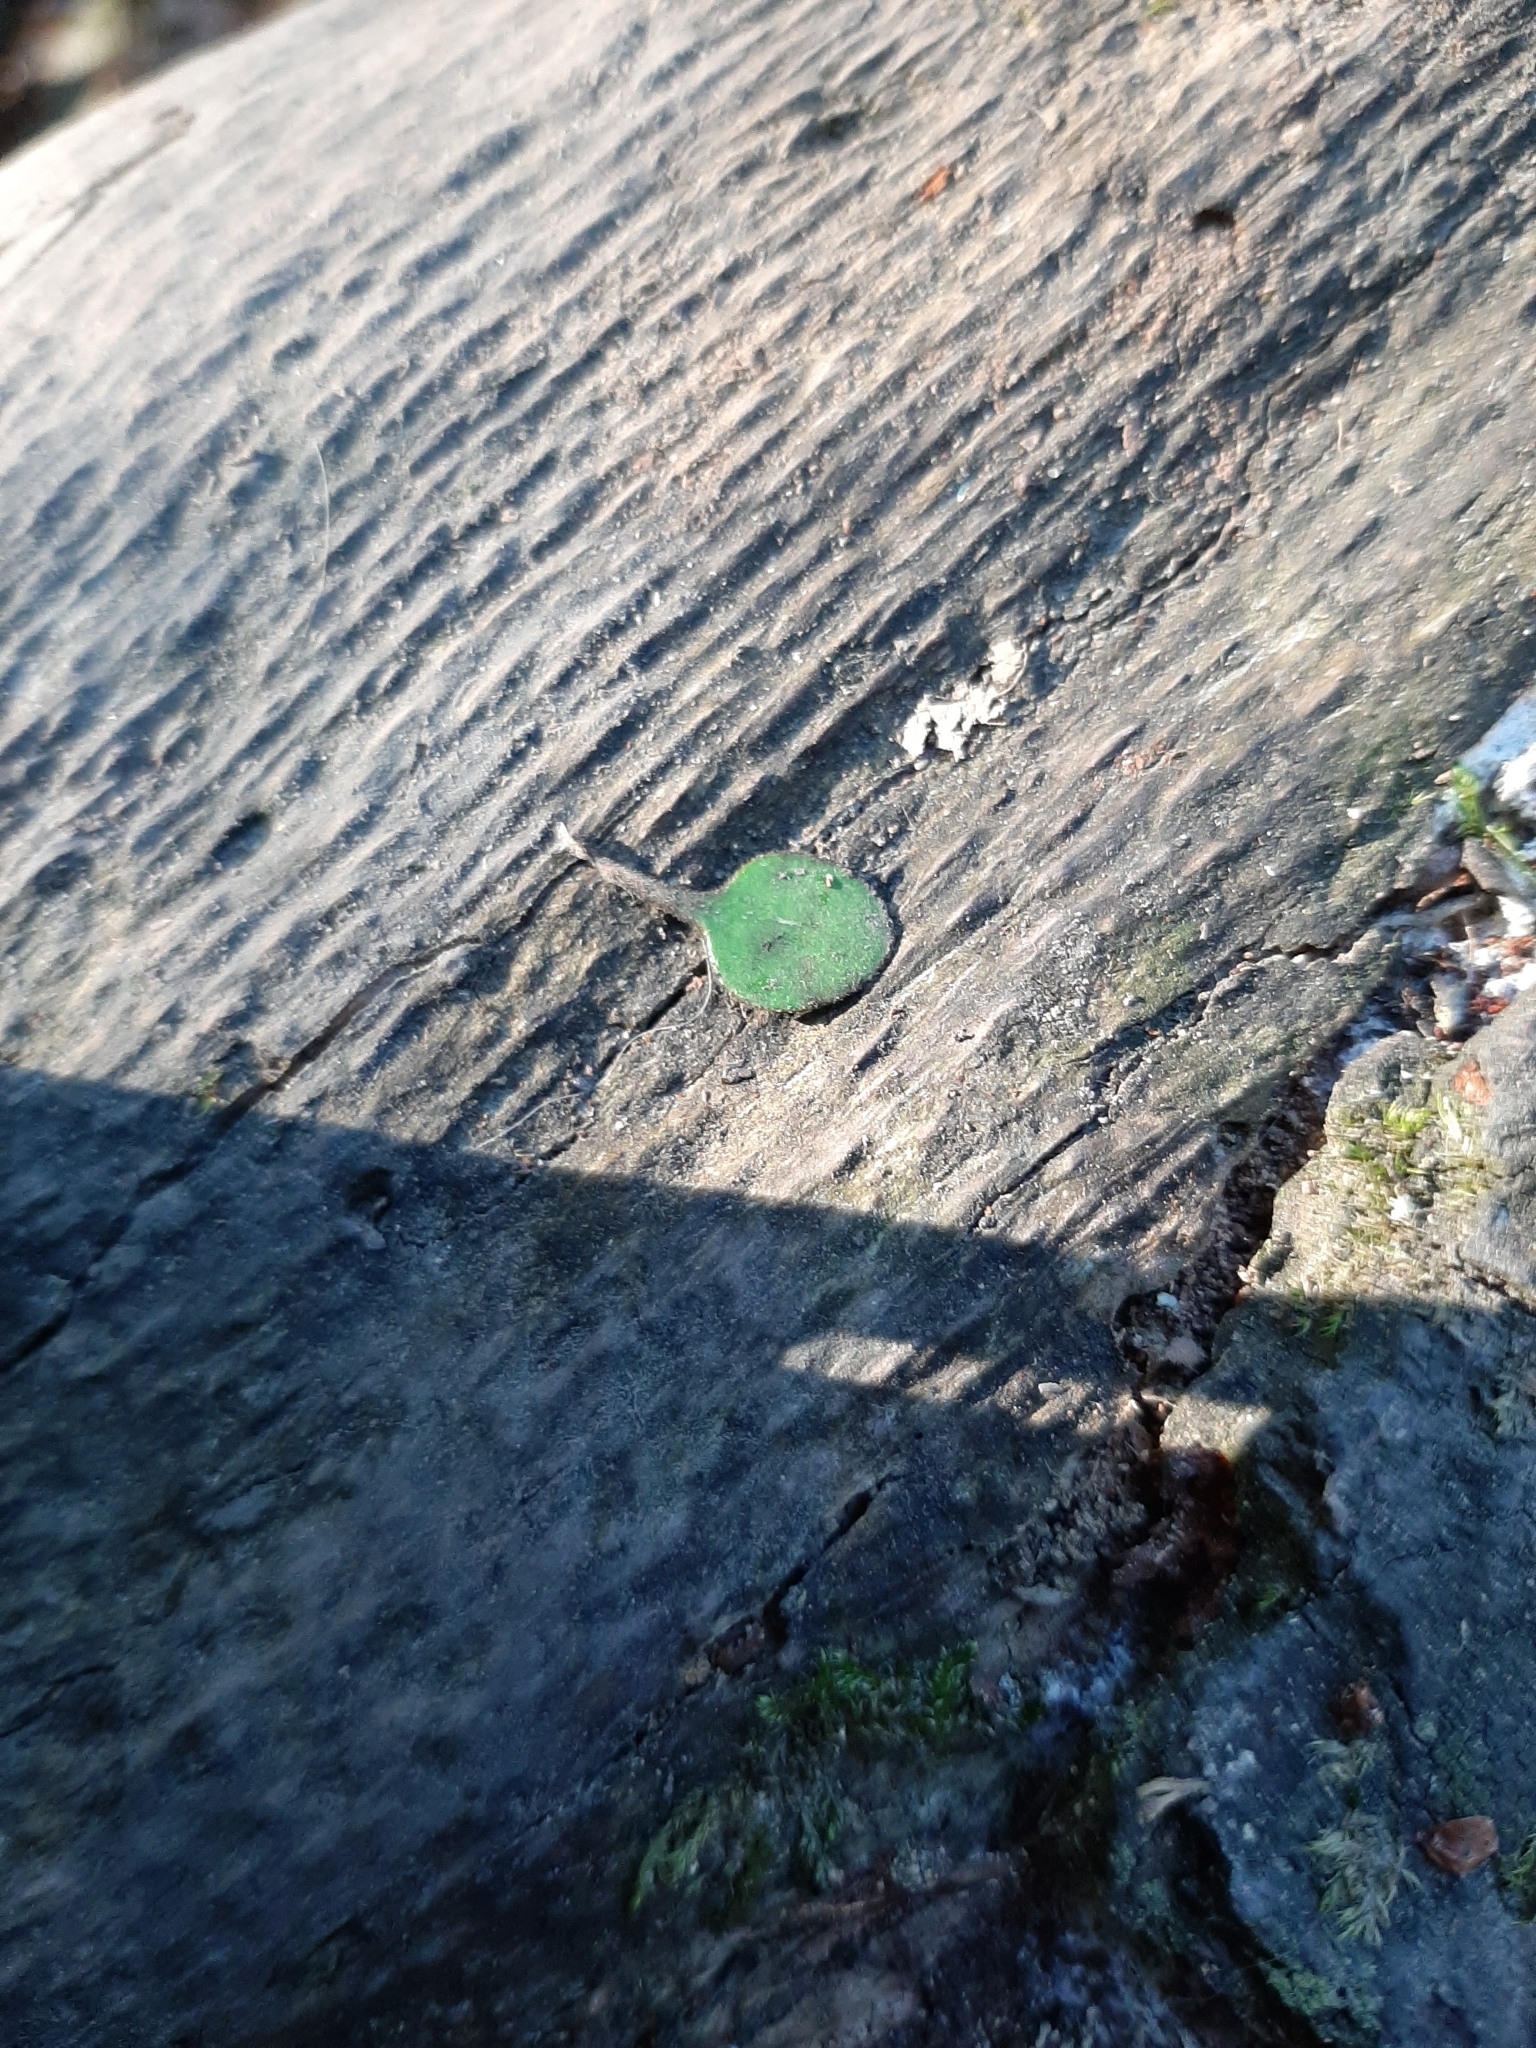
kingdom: Plantae
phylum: Tracheophyta
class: Magnoliopsida
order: Gentianales
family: Rubiaceae
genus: Coprosma
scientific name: Coprosma crassifolia
